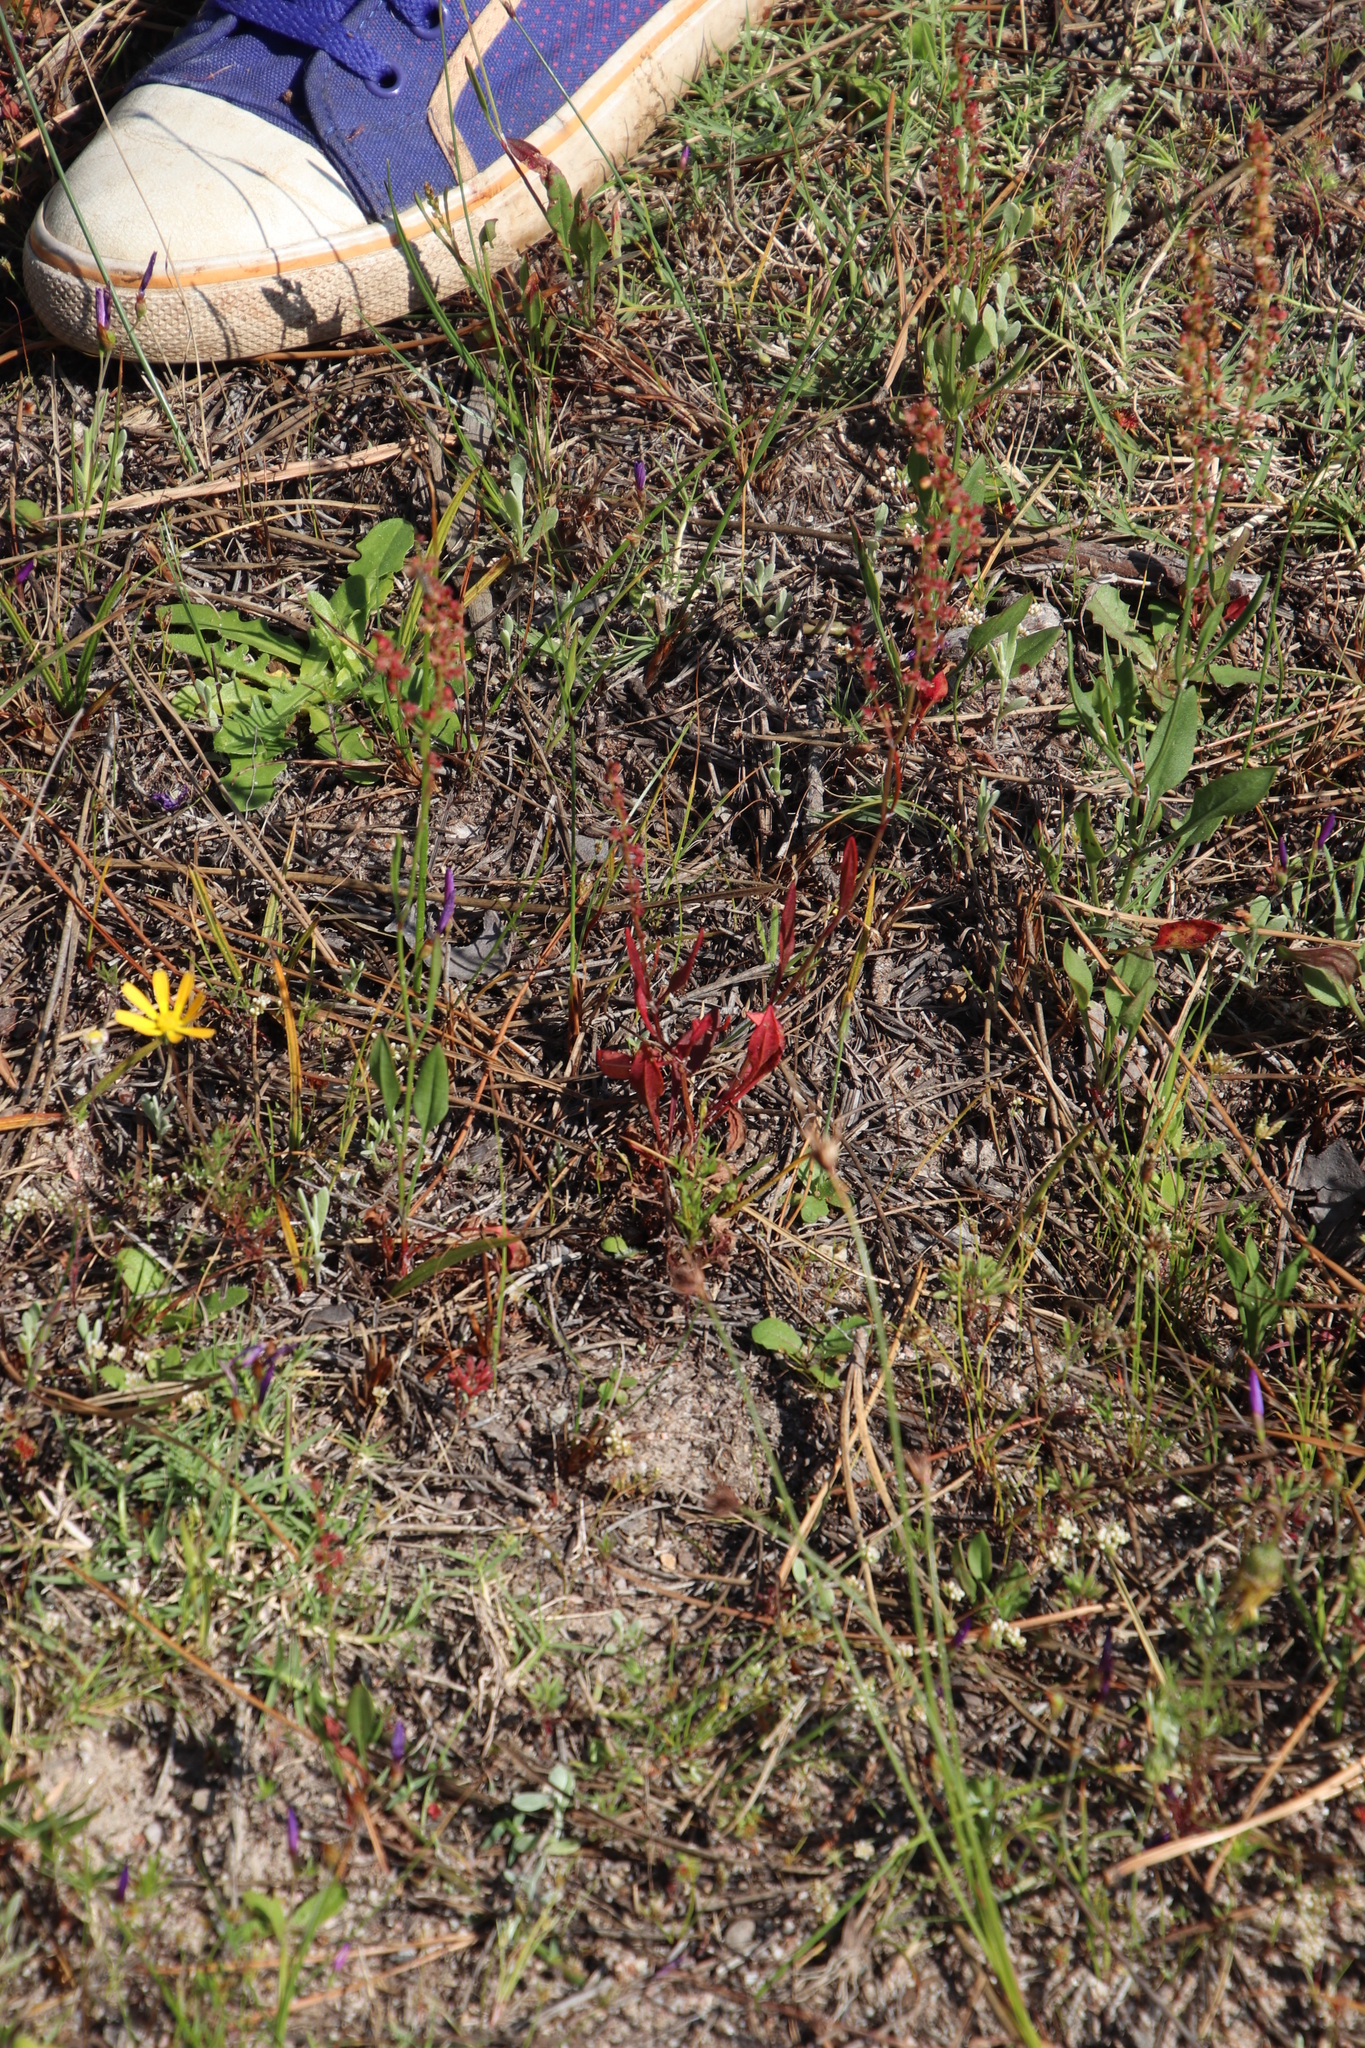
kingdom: Plantae
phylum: Tracheophyta
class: Magnoliopsida
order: Caryophyllales
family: Polygonaceae
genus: Rumex
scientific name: Rumex acetosella
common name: Common sheep sorrel
